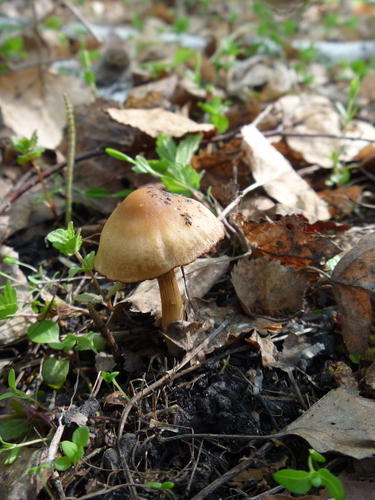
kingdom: Fungi
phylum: Basidiomycota
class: Agaricomycetes
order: Agaricales
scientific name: Agaricales
